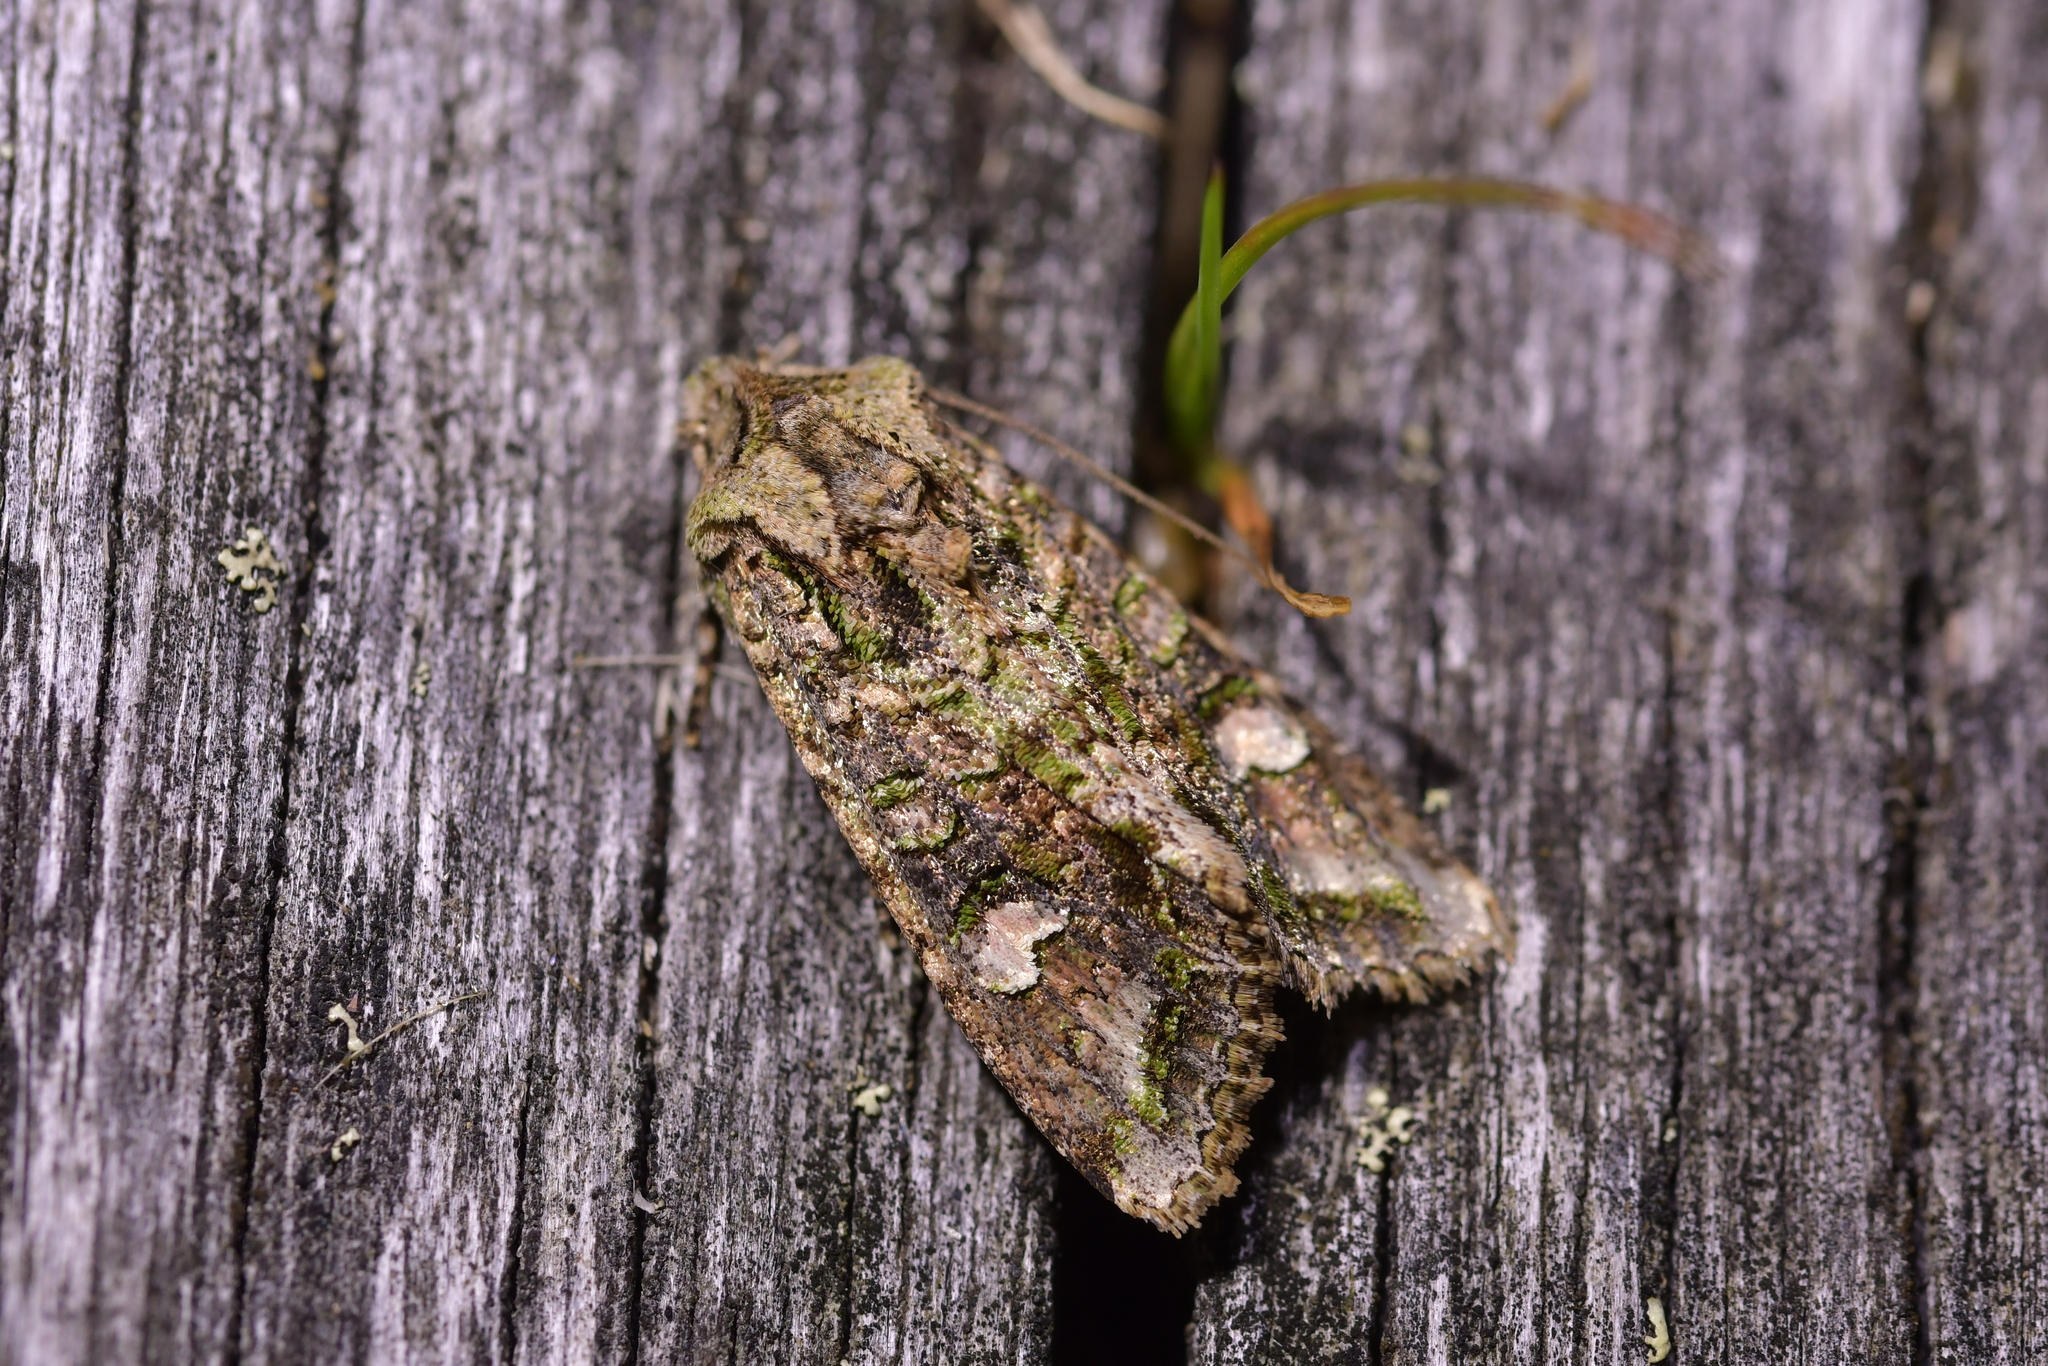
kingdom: Animalia
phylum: Arthropoda
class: Insecta
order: Lepidoptera
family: Noctuidae
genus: Ichneutica
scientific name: Ichneutica insignis
